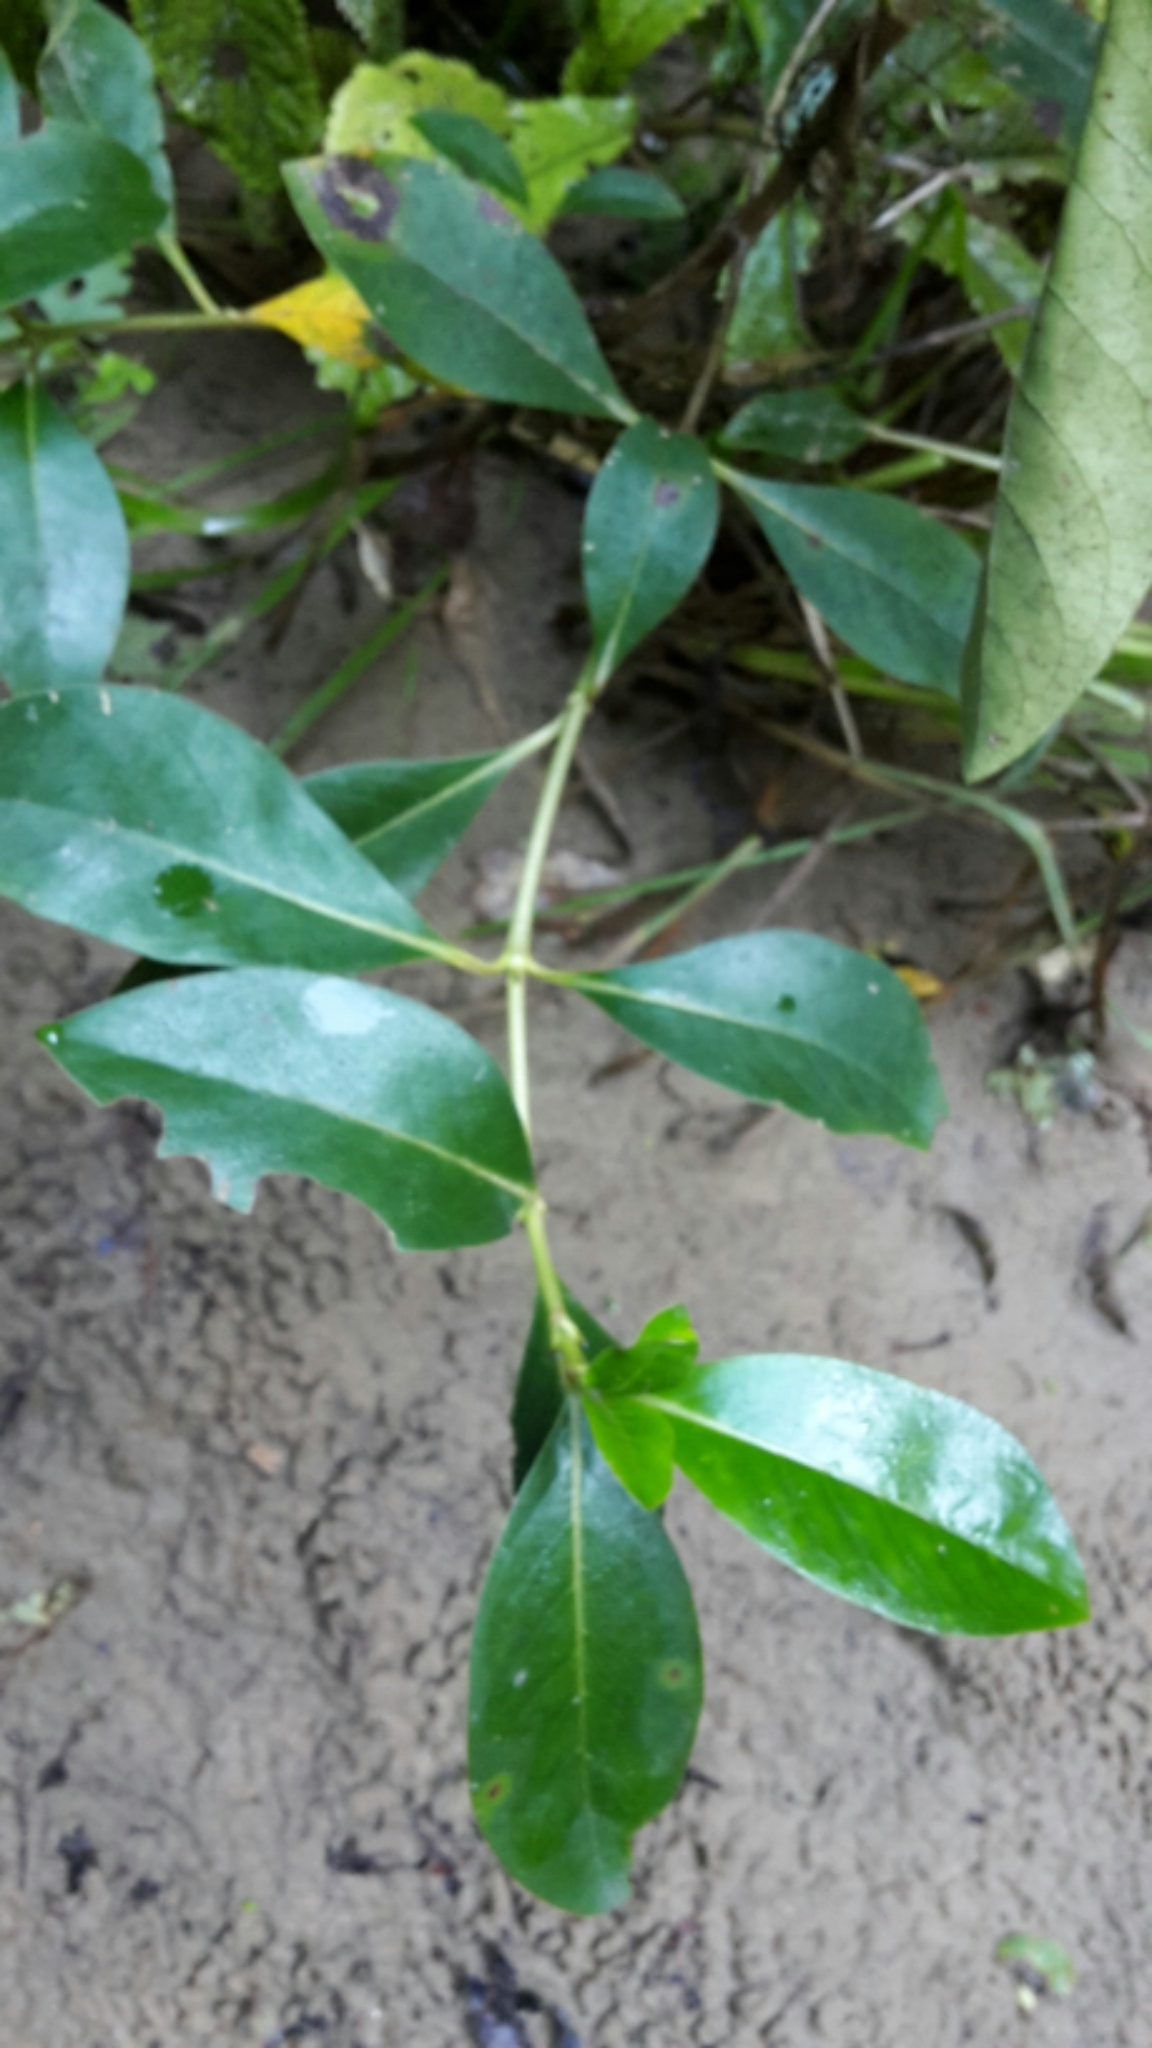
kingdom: Plantae
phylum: Tracheophyta
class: Magnoliopsida
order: Gentianales
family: Rubiaceae
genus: Coprosma
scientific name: Coprosma robusta
